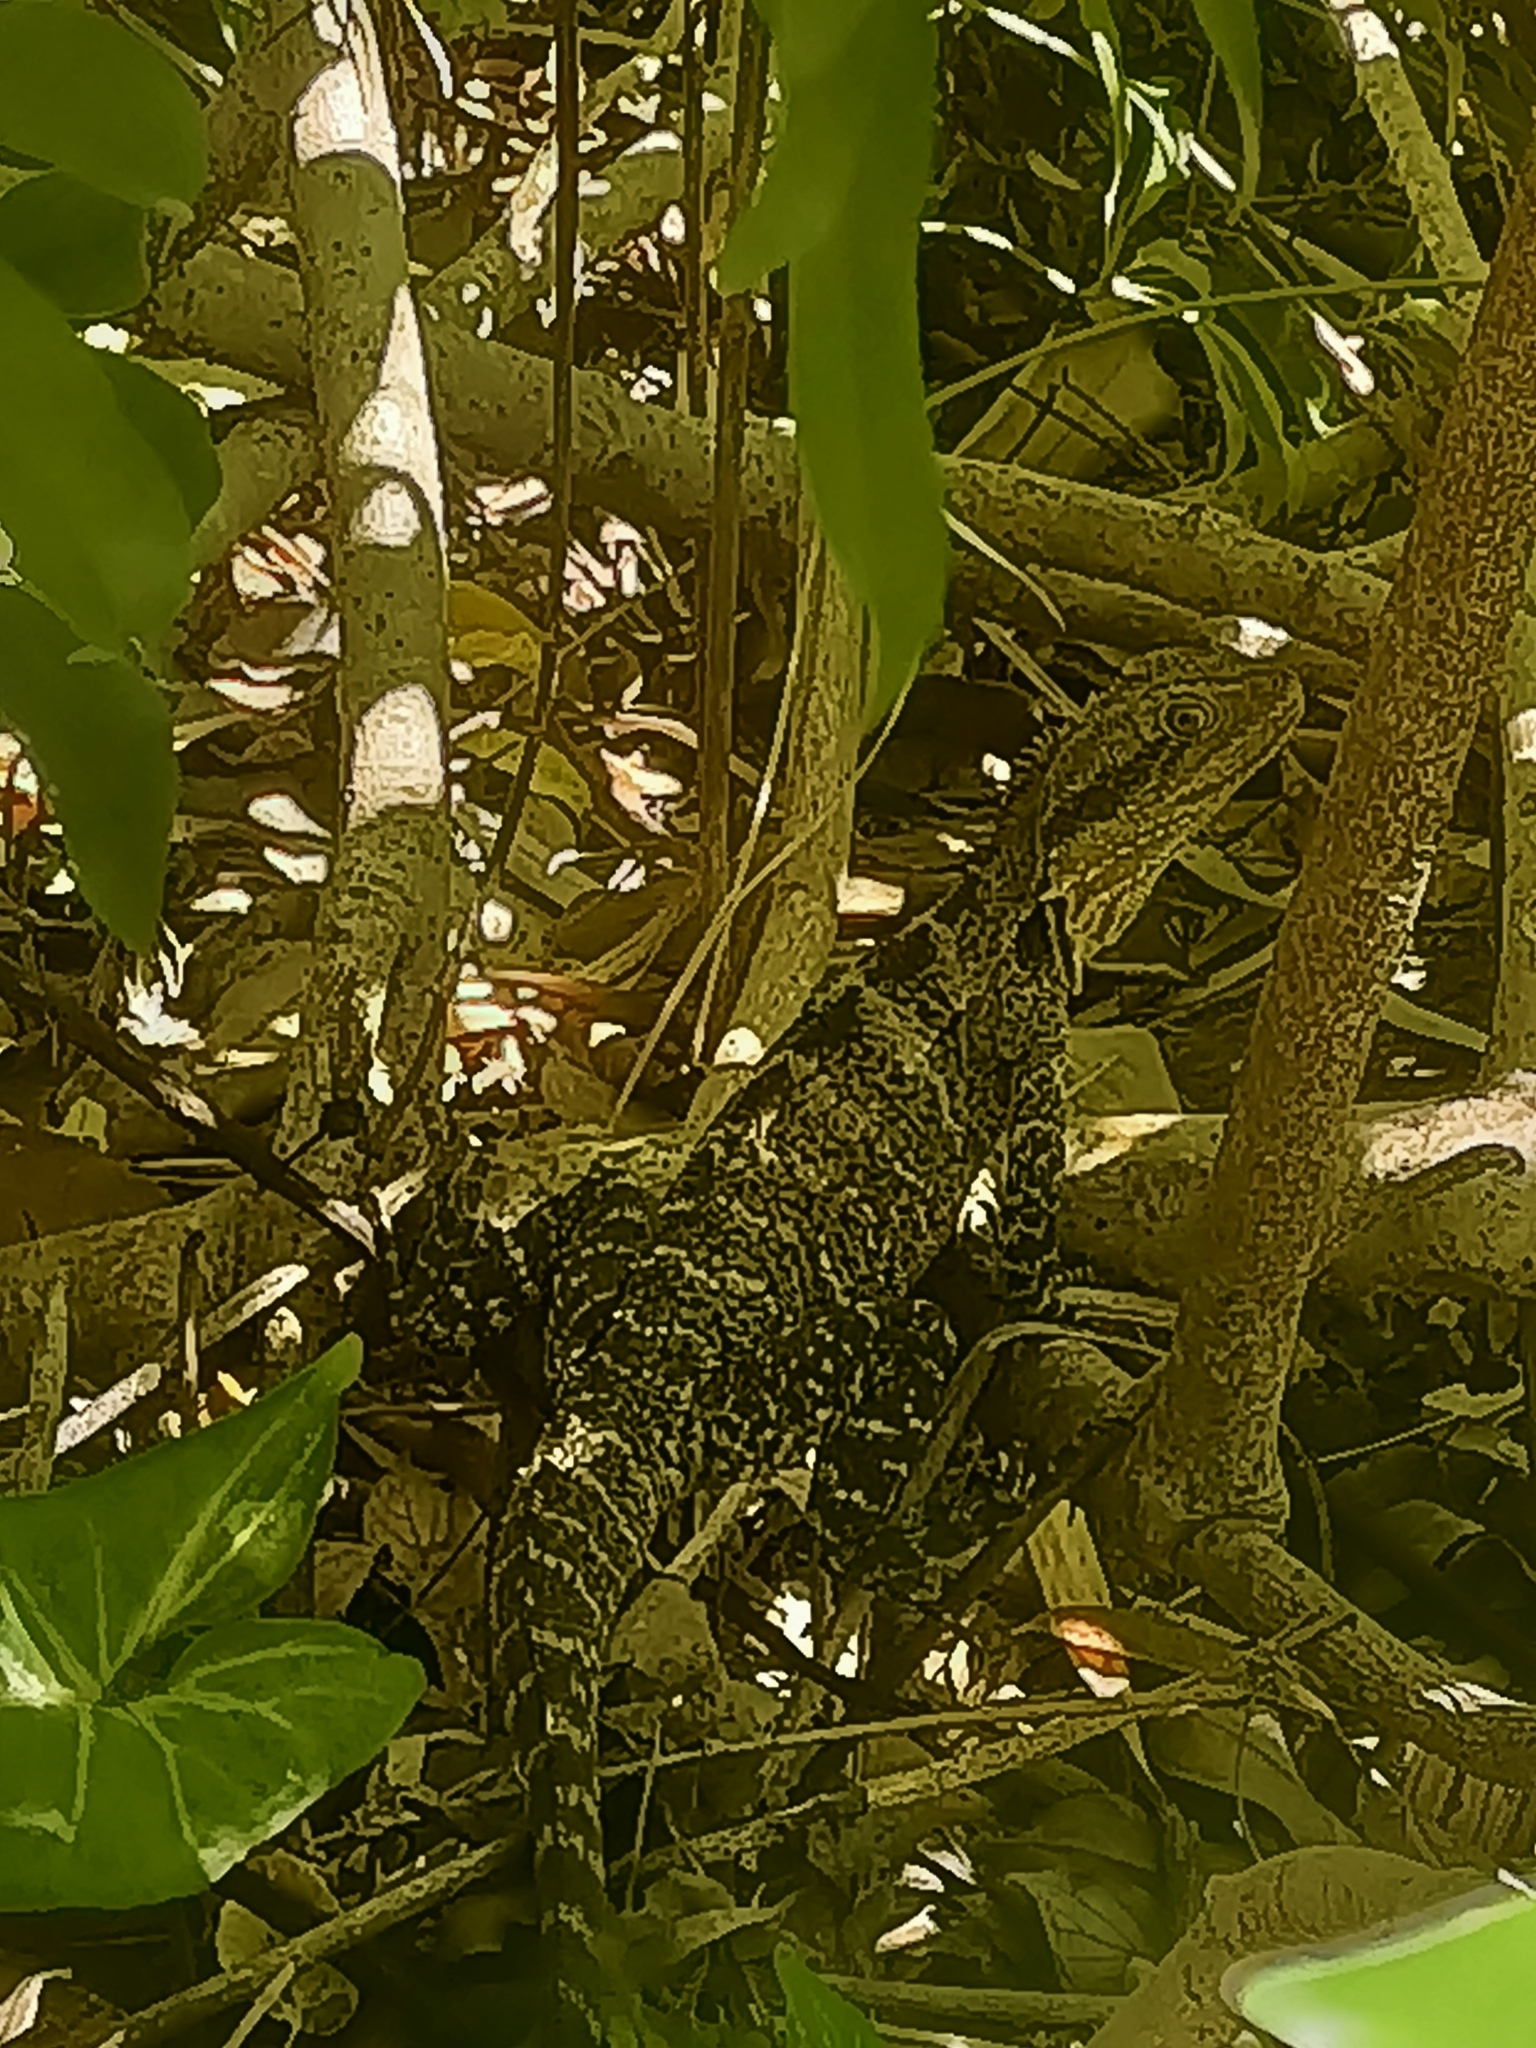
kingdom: Animalia
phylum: Chordata
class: Squamata
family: Agamidae
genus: Intellagama
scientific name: Intellagama lesueurii
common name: Eastern water dragon
